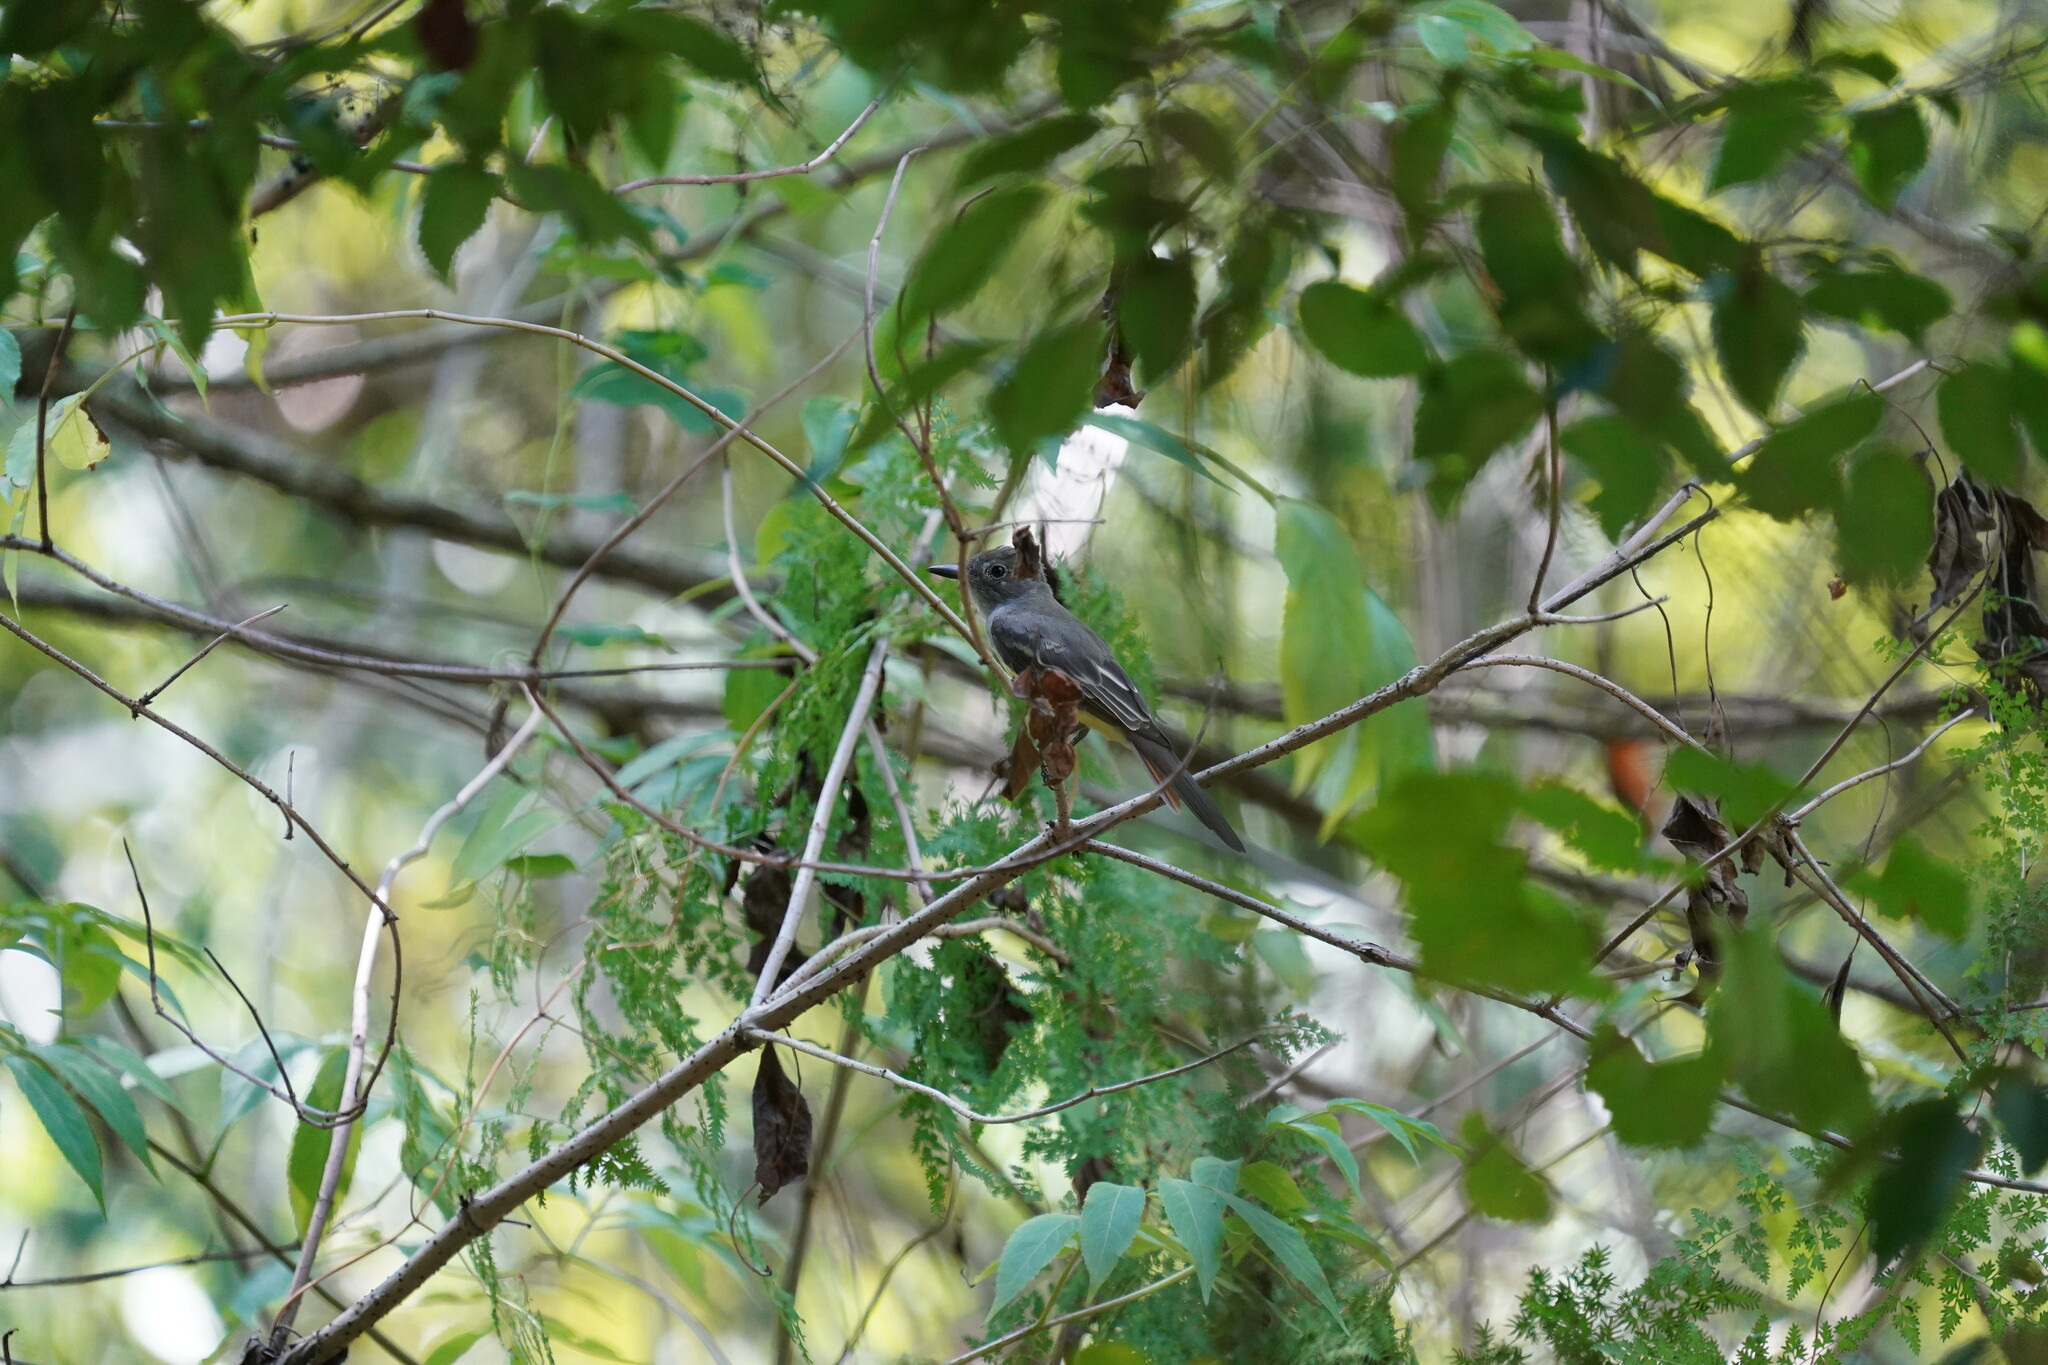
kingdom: Animalia
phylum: Chordata
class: Aves
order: Passeriformes
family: Tyrannidae
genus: Myiarchus
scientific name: Myiarchus crinitus
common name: Great crested flycatcher
